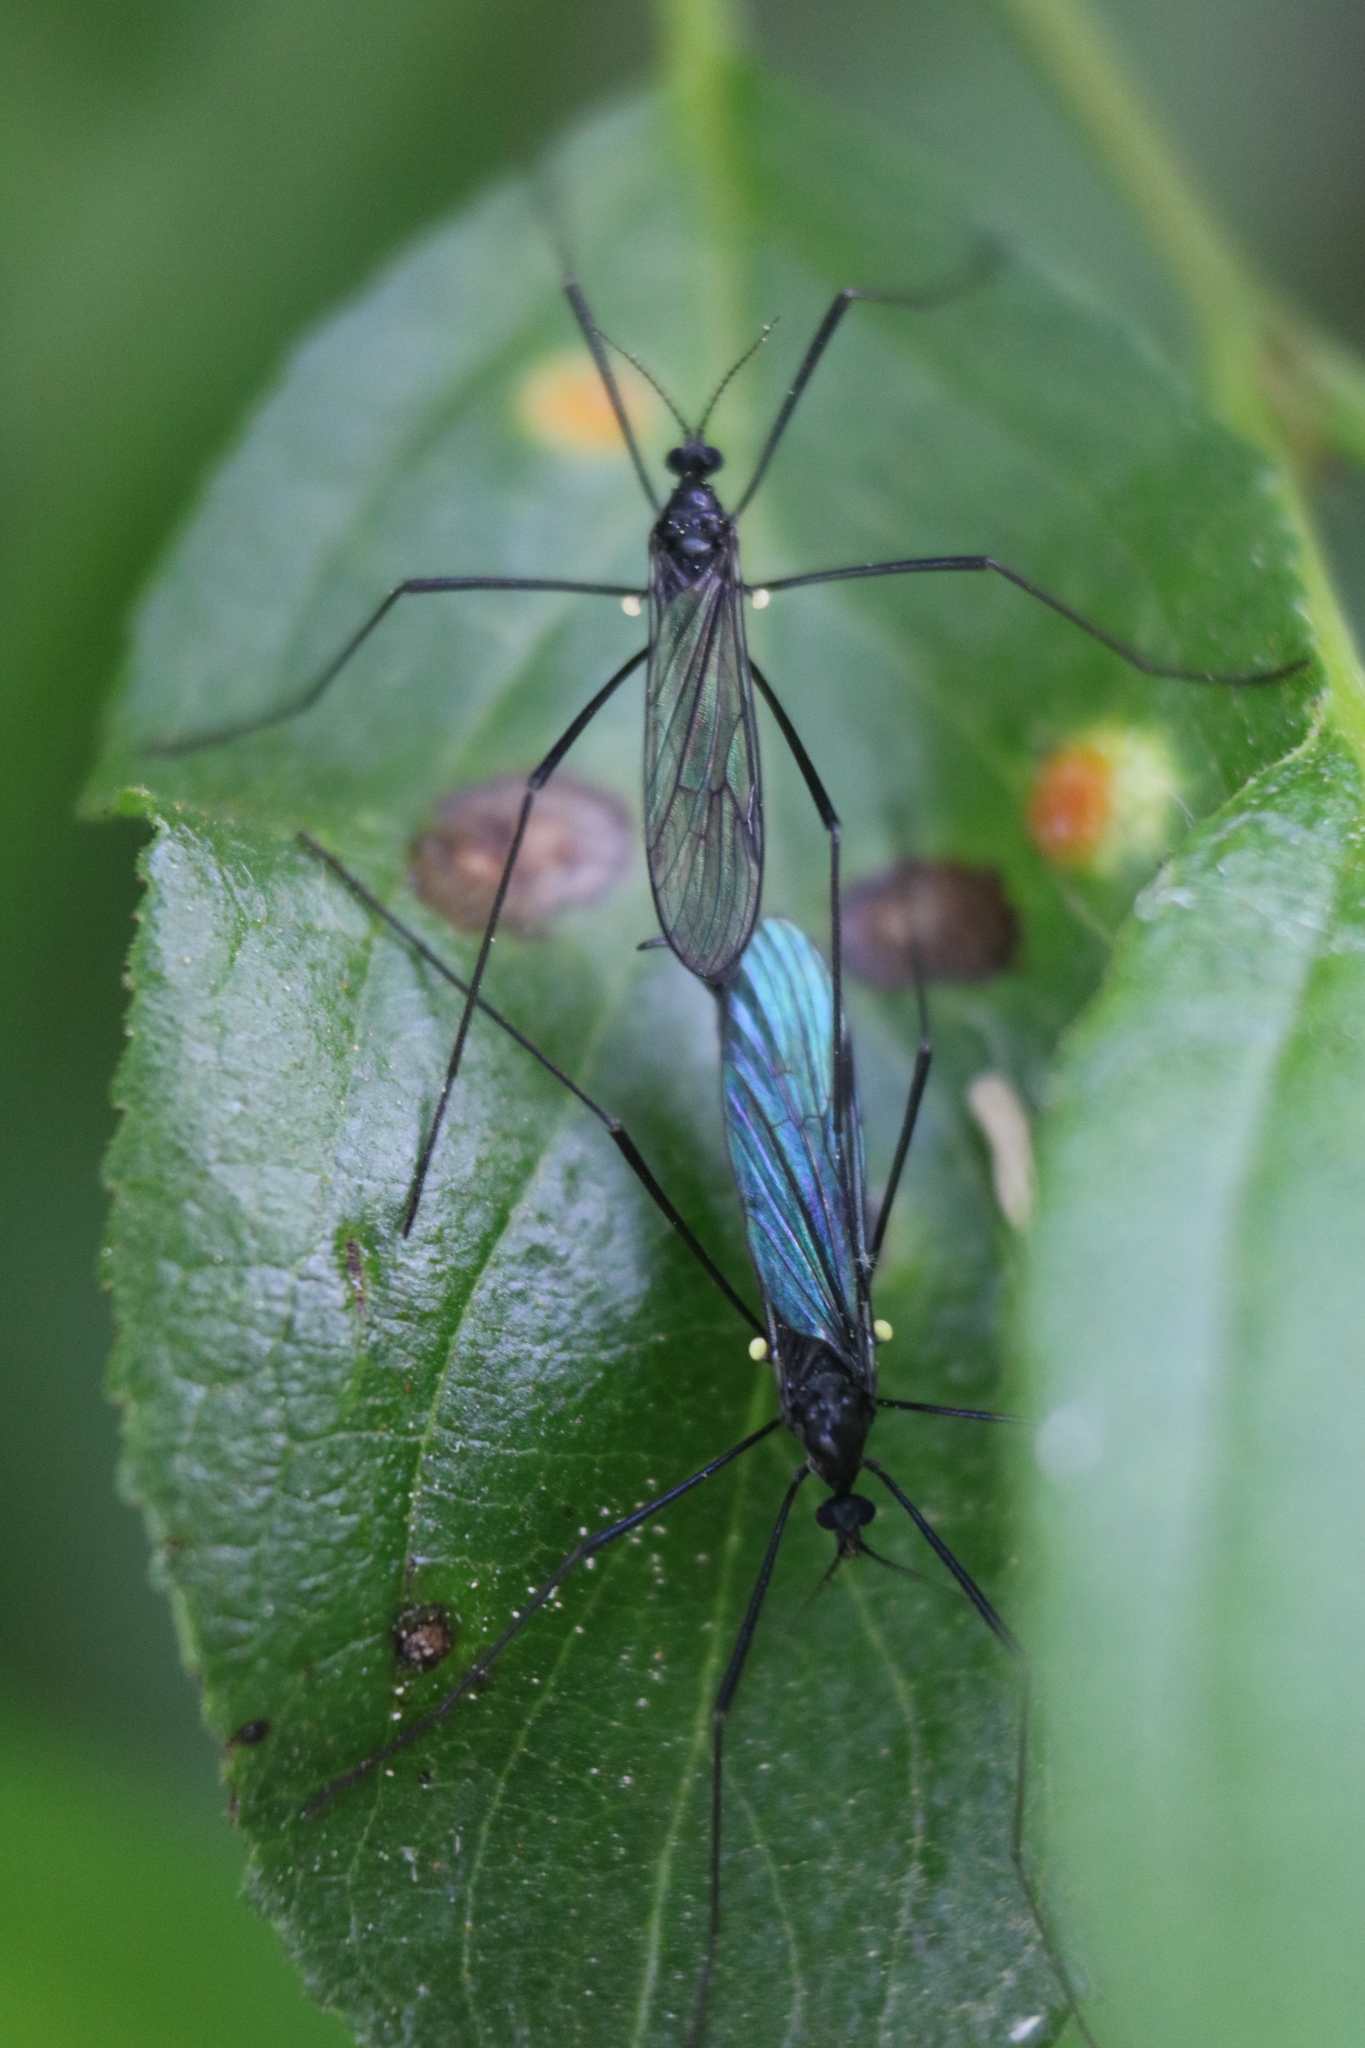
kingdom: Animalia
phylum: Arthropoda
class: Insecta
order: Diptera
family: Limoniidae
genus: Gnophomyia
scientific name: Gnophomyia tristissima
